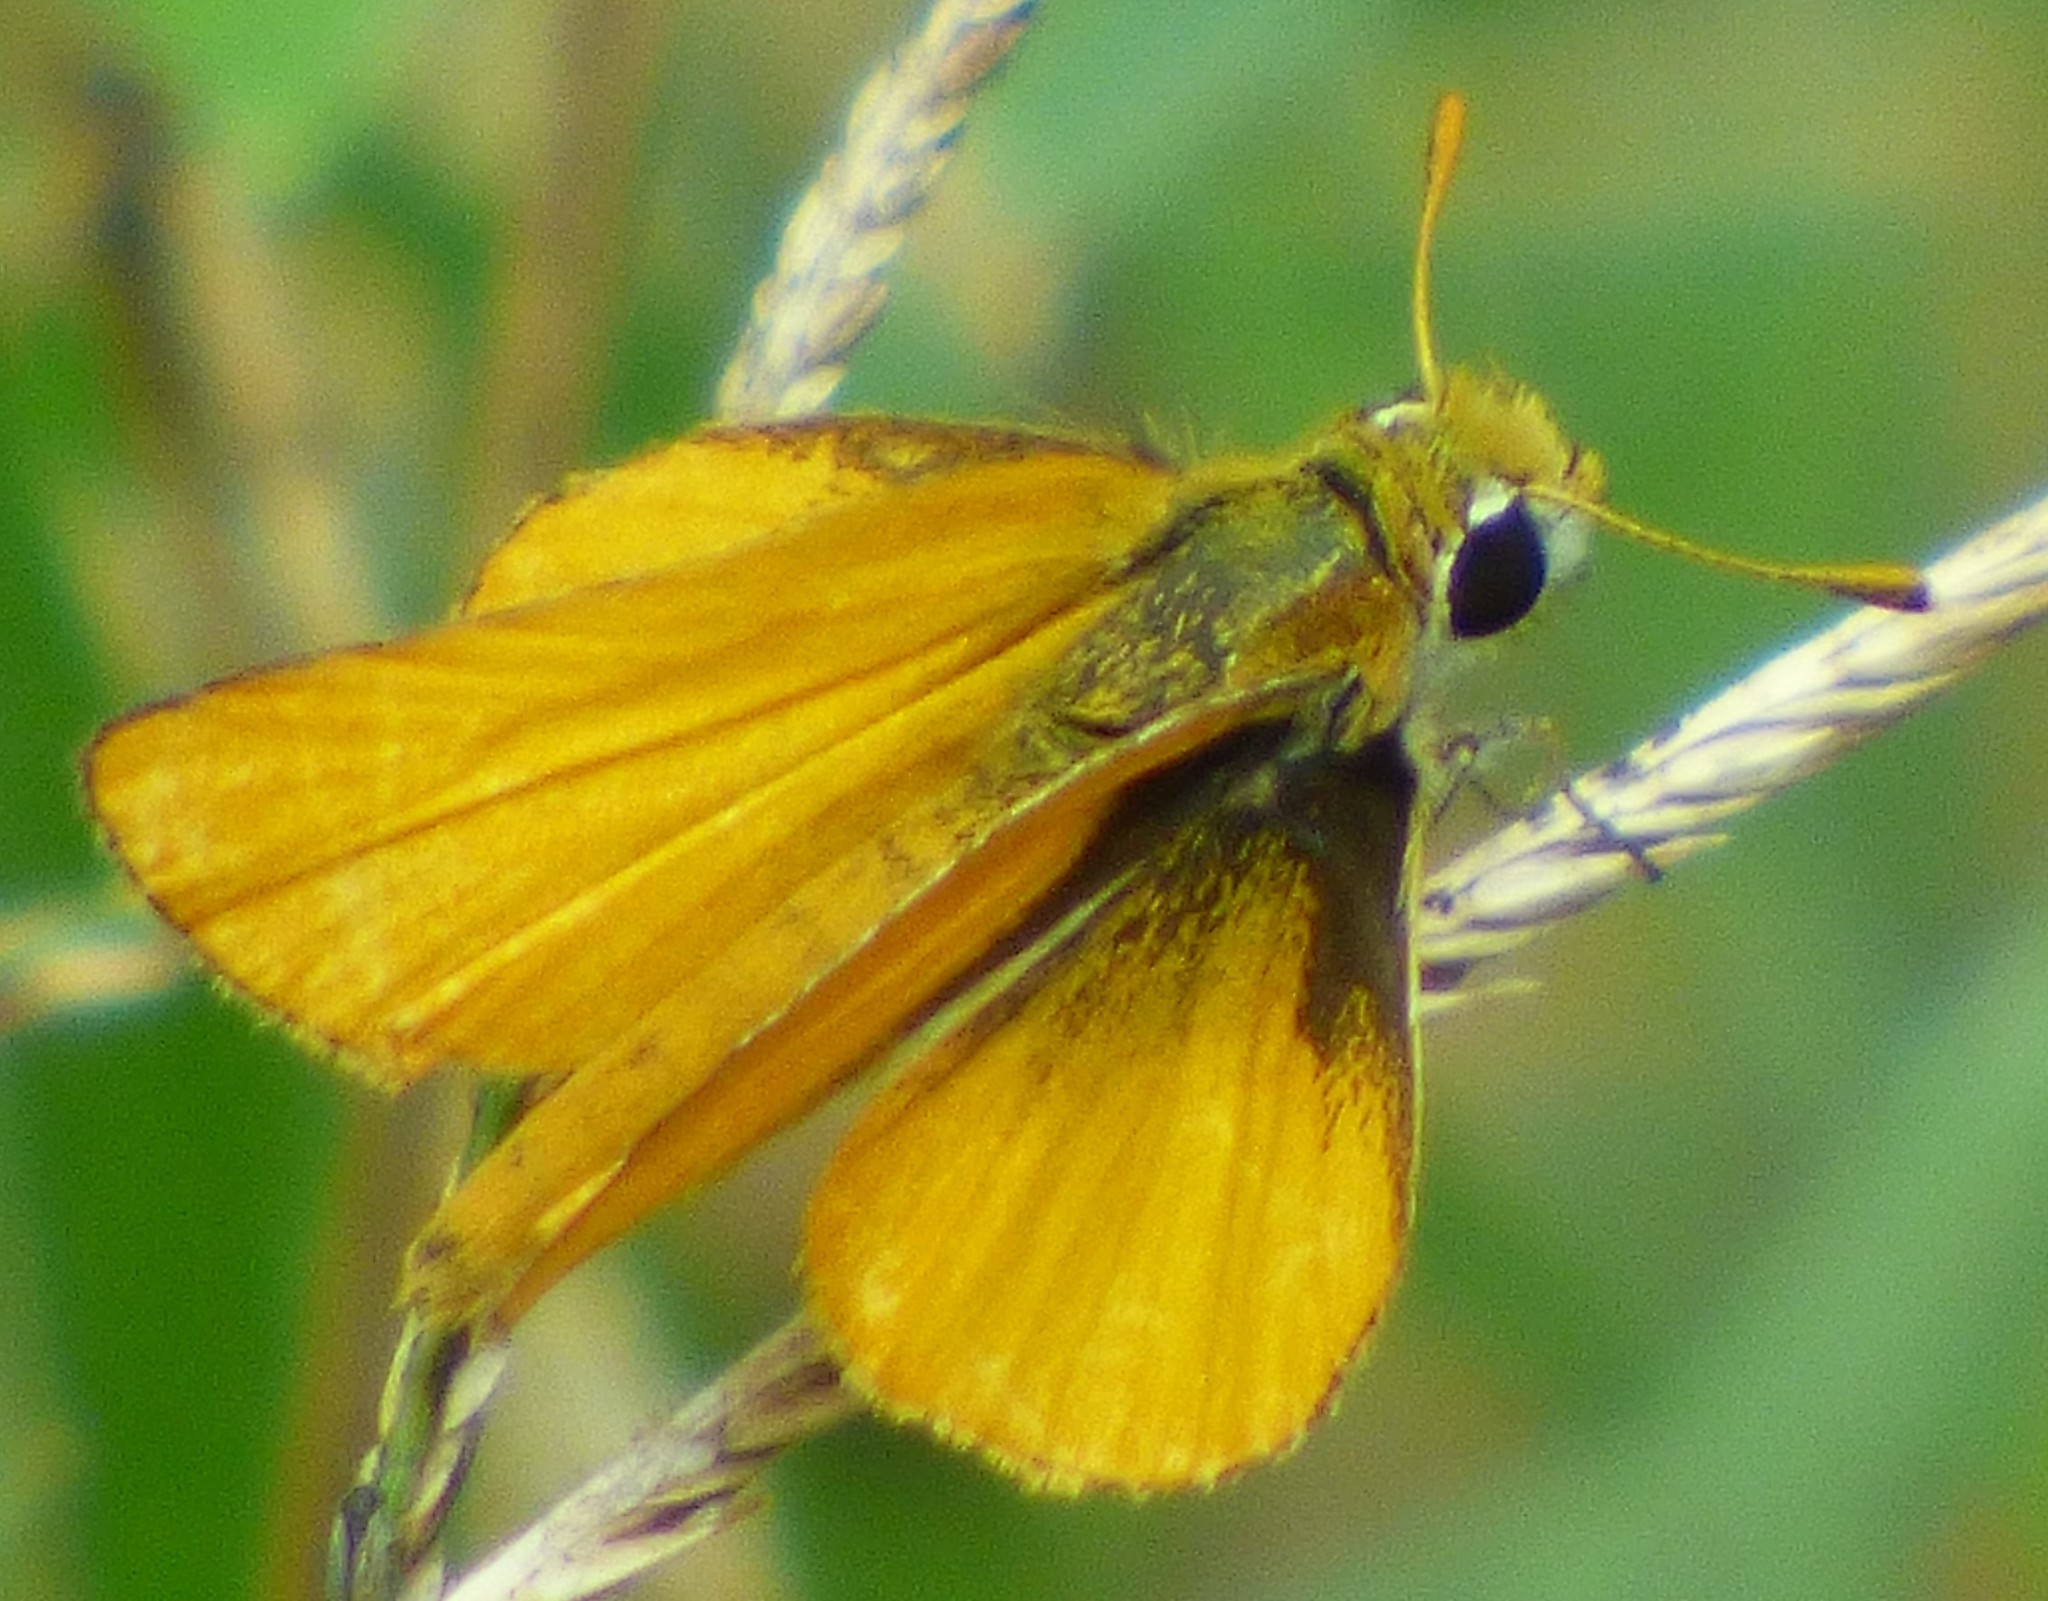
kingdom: Animalia
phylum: Arthropoda
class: Insecta
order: Lepidoptera
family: Hesperiidae
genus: Copaeodes
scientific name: Copaeodes minima
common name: Southern skipperling
